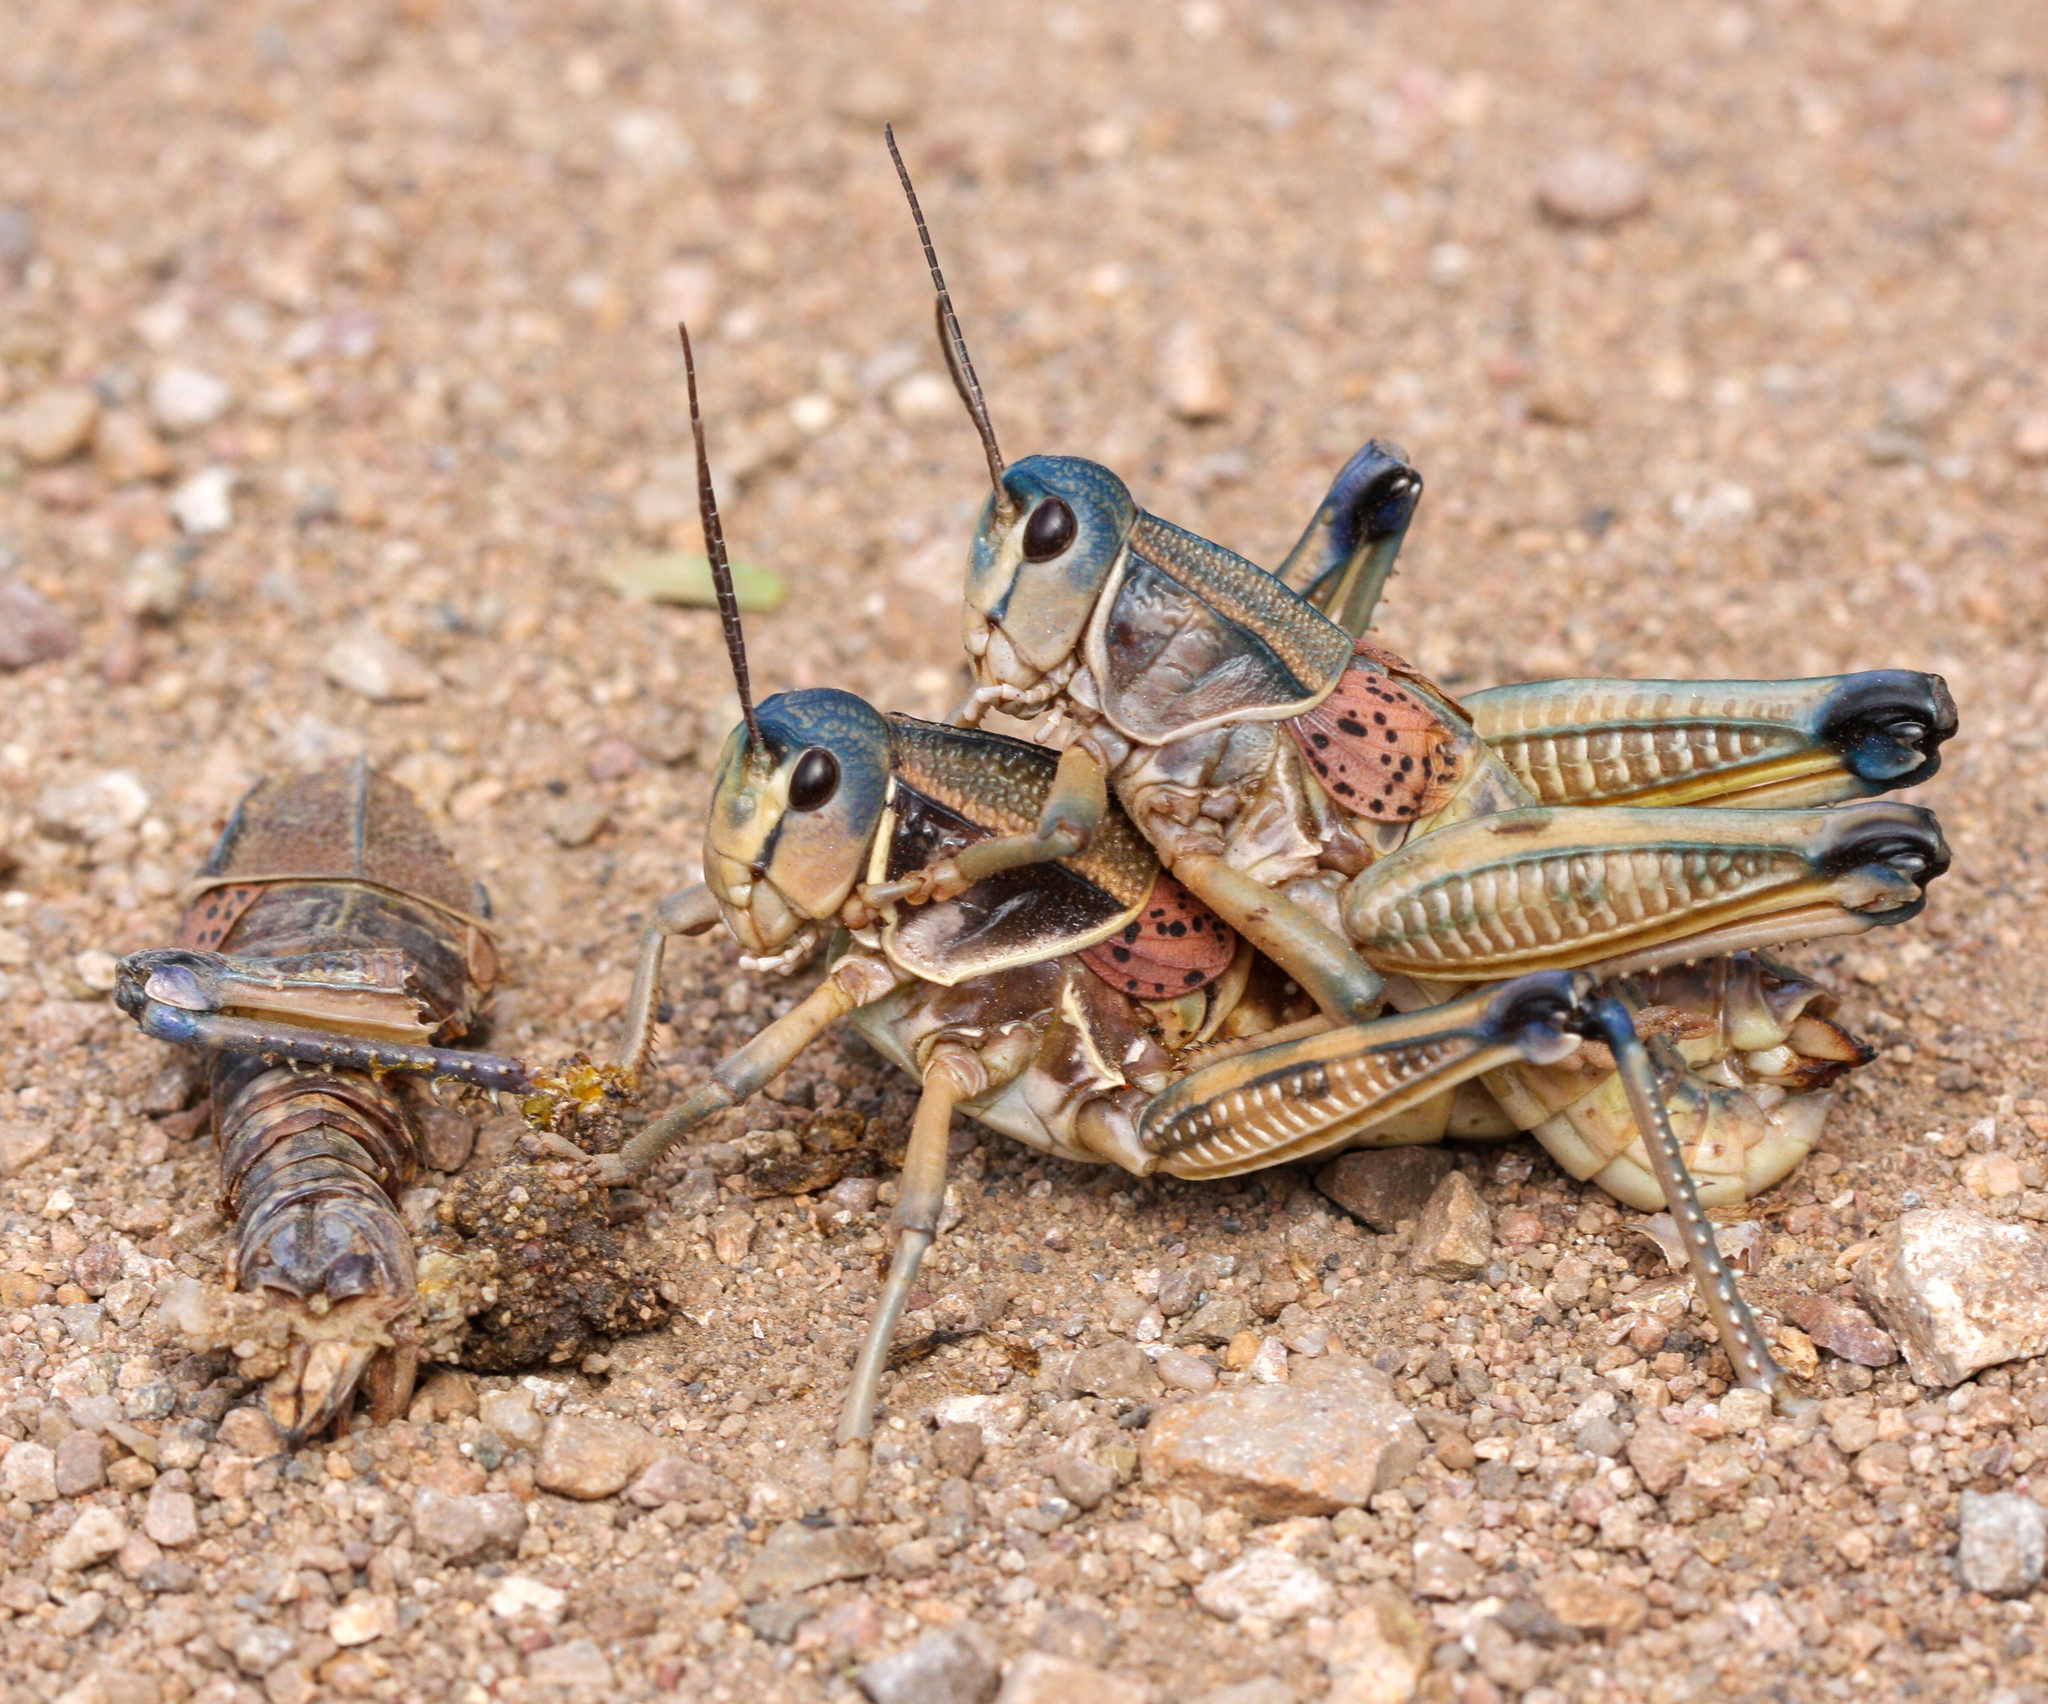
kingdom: Animalia
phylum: Arthropoda
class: Insecta
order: Orthoptera
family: Romaleidae
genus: Brachystola
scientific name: Brachystola magna
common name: Plains lubber grasshopper
